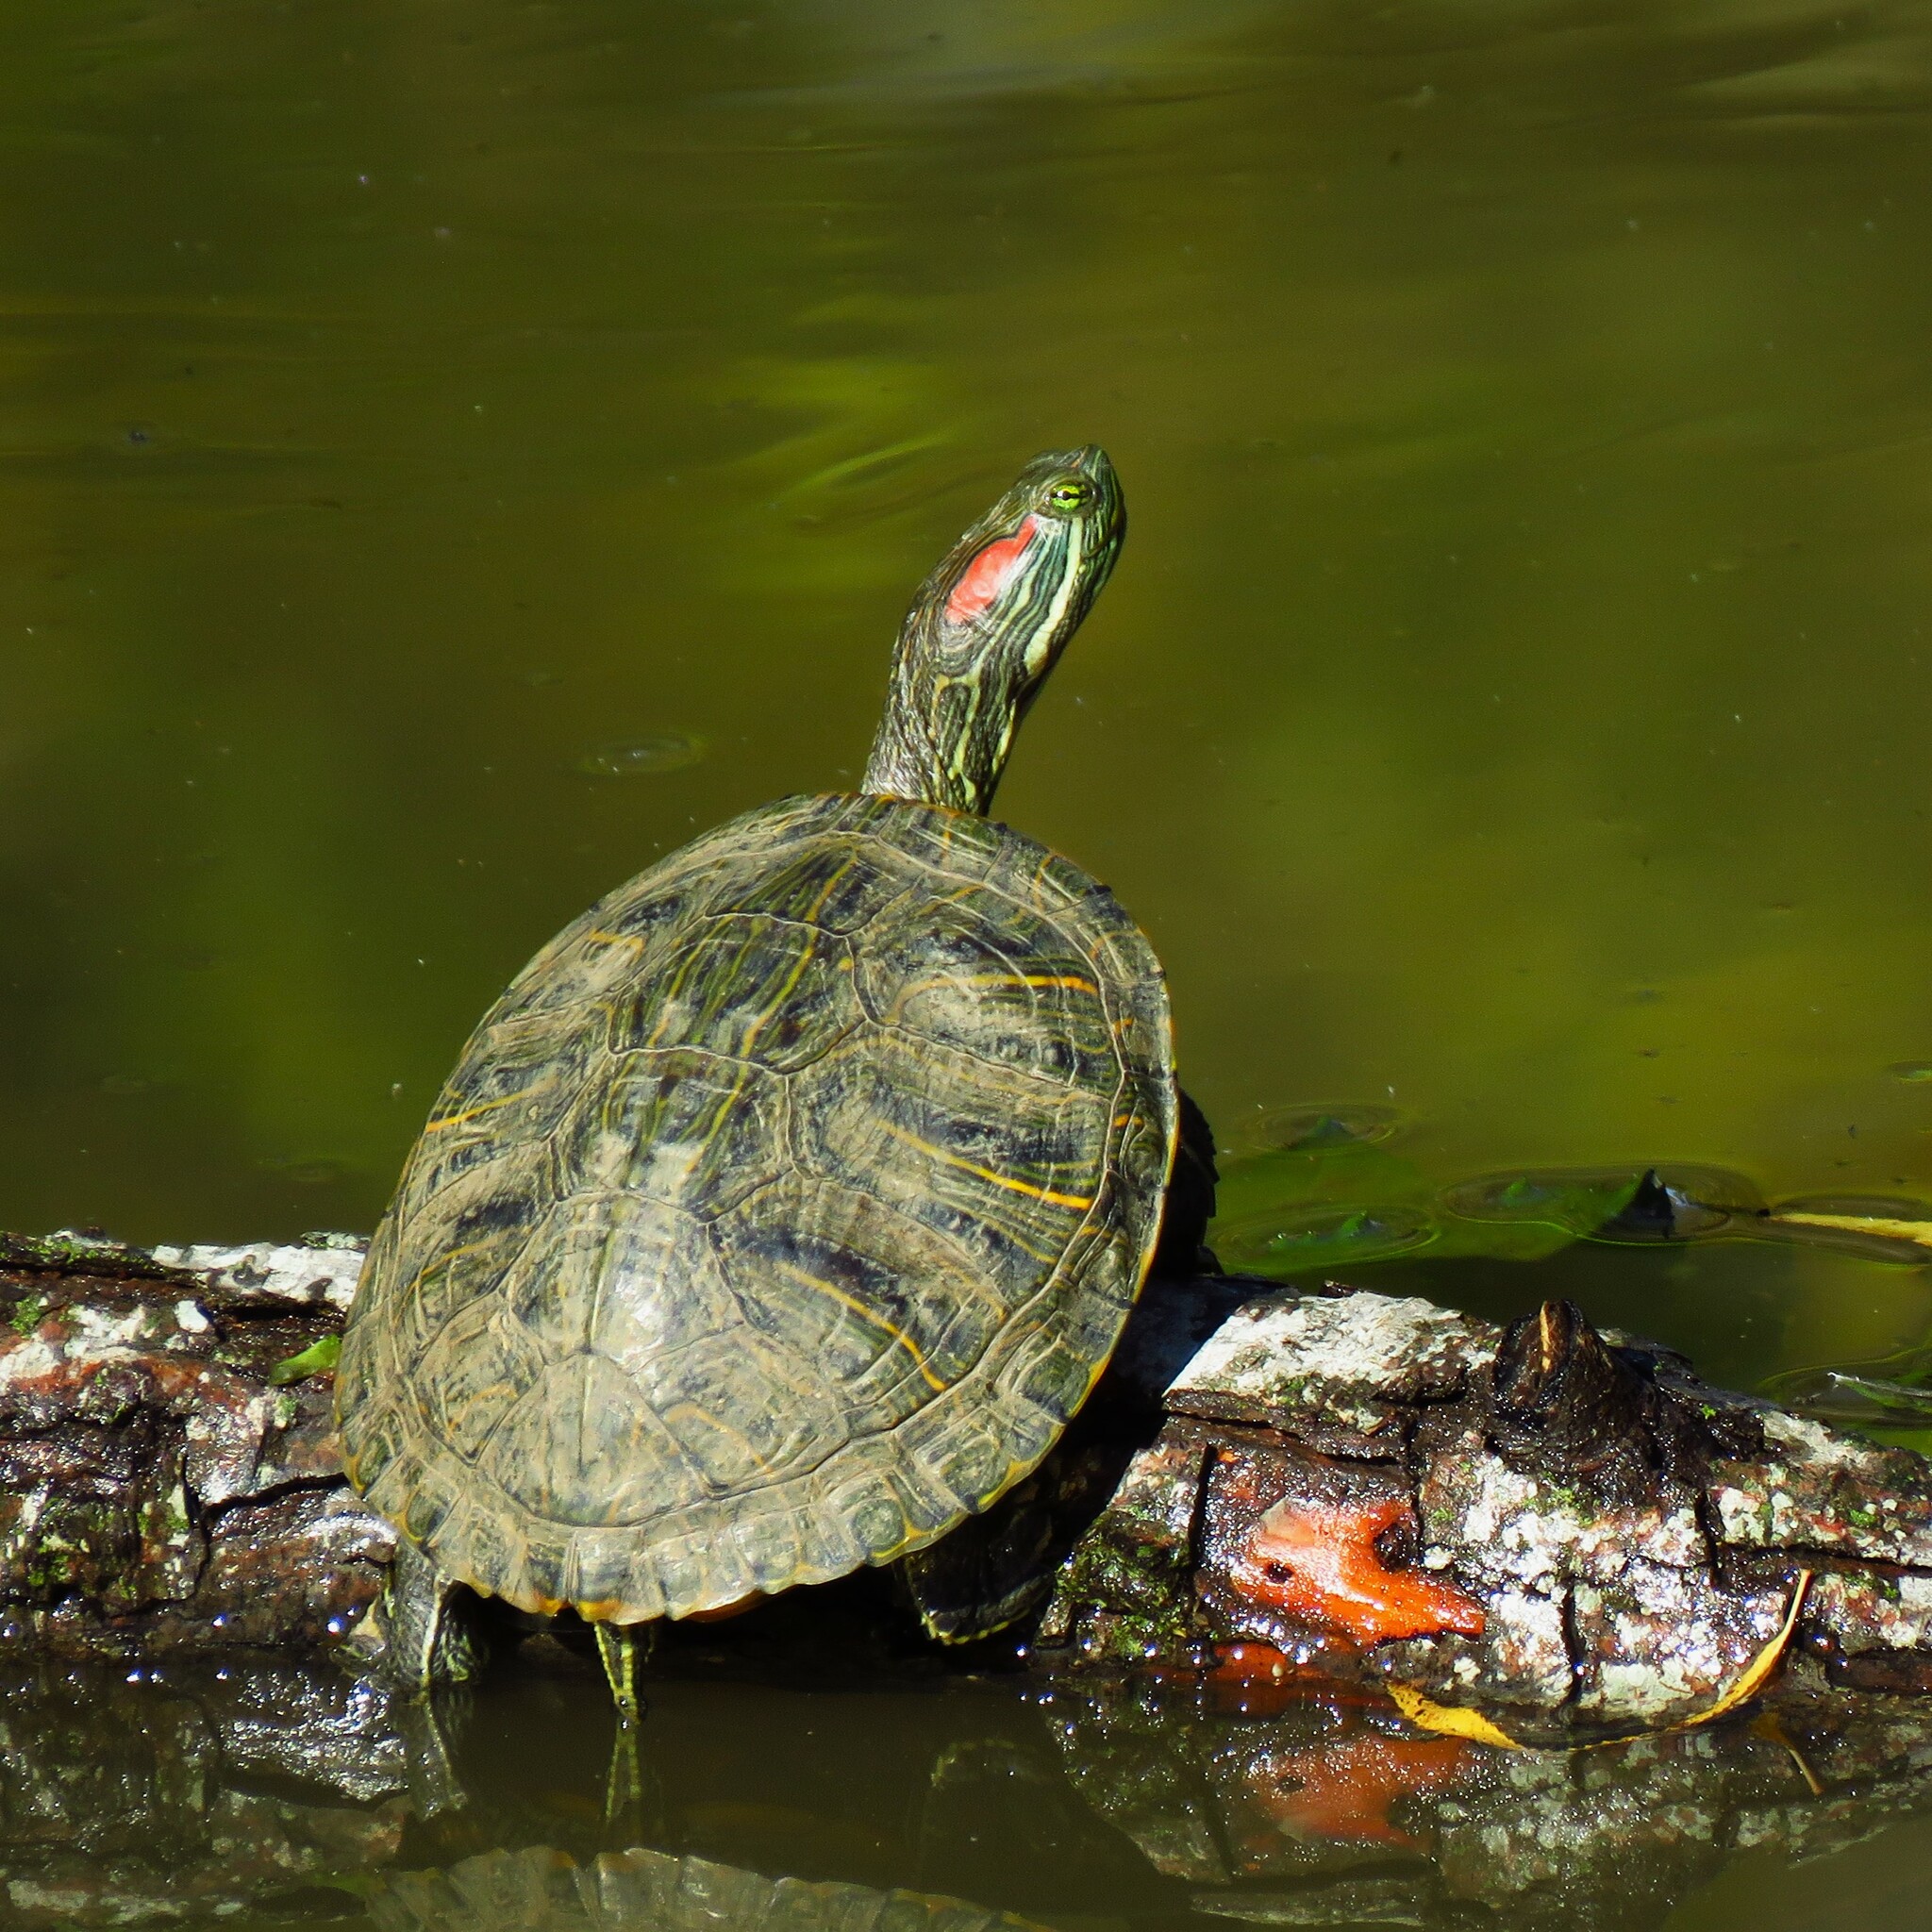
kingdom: Animalia
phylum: Chordata
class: Testudines
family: Emydidae
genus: Trachemys
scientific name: Trachemys scripta
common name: Slider
